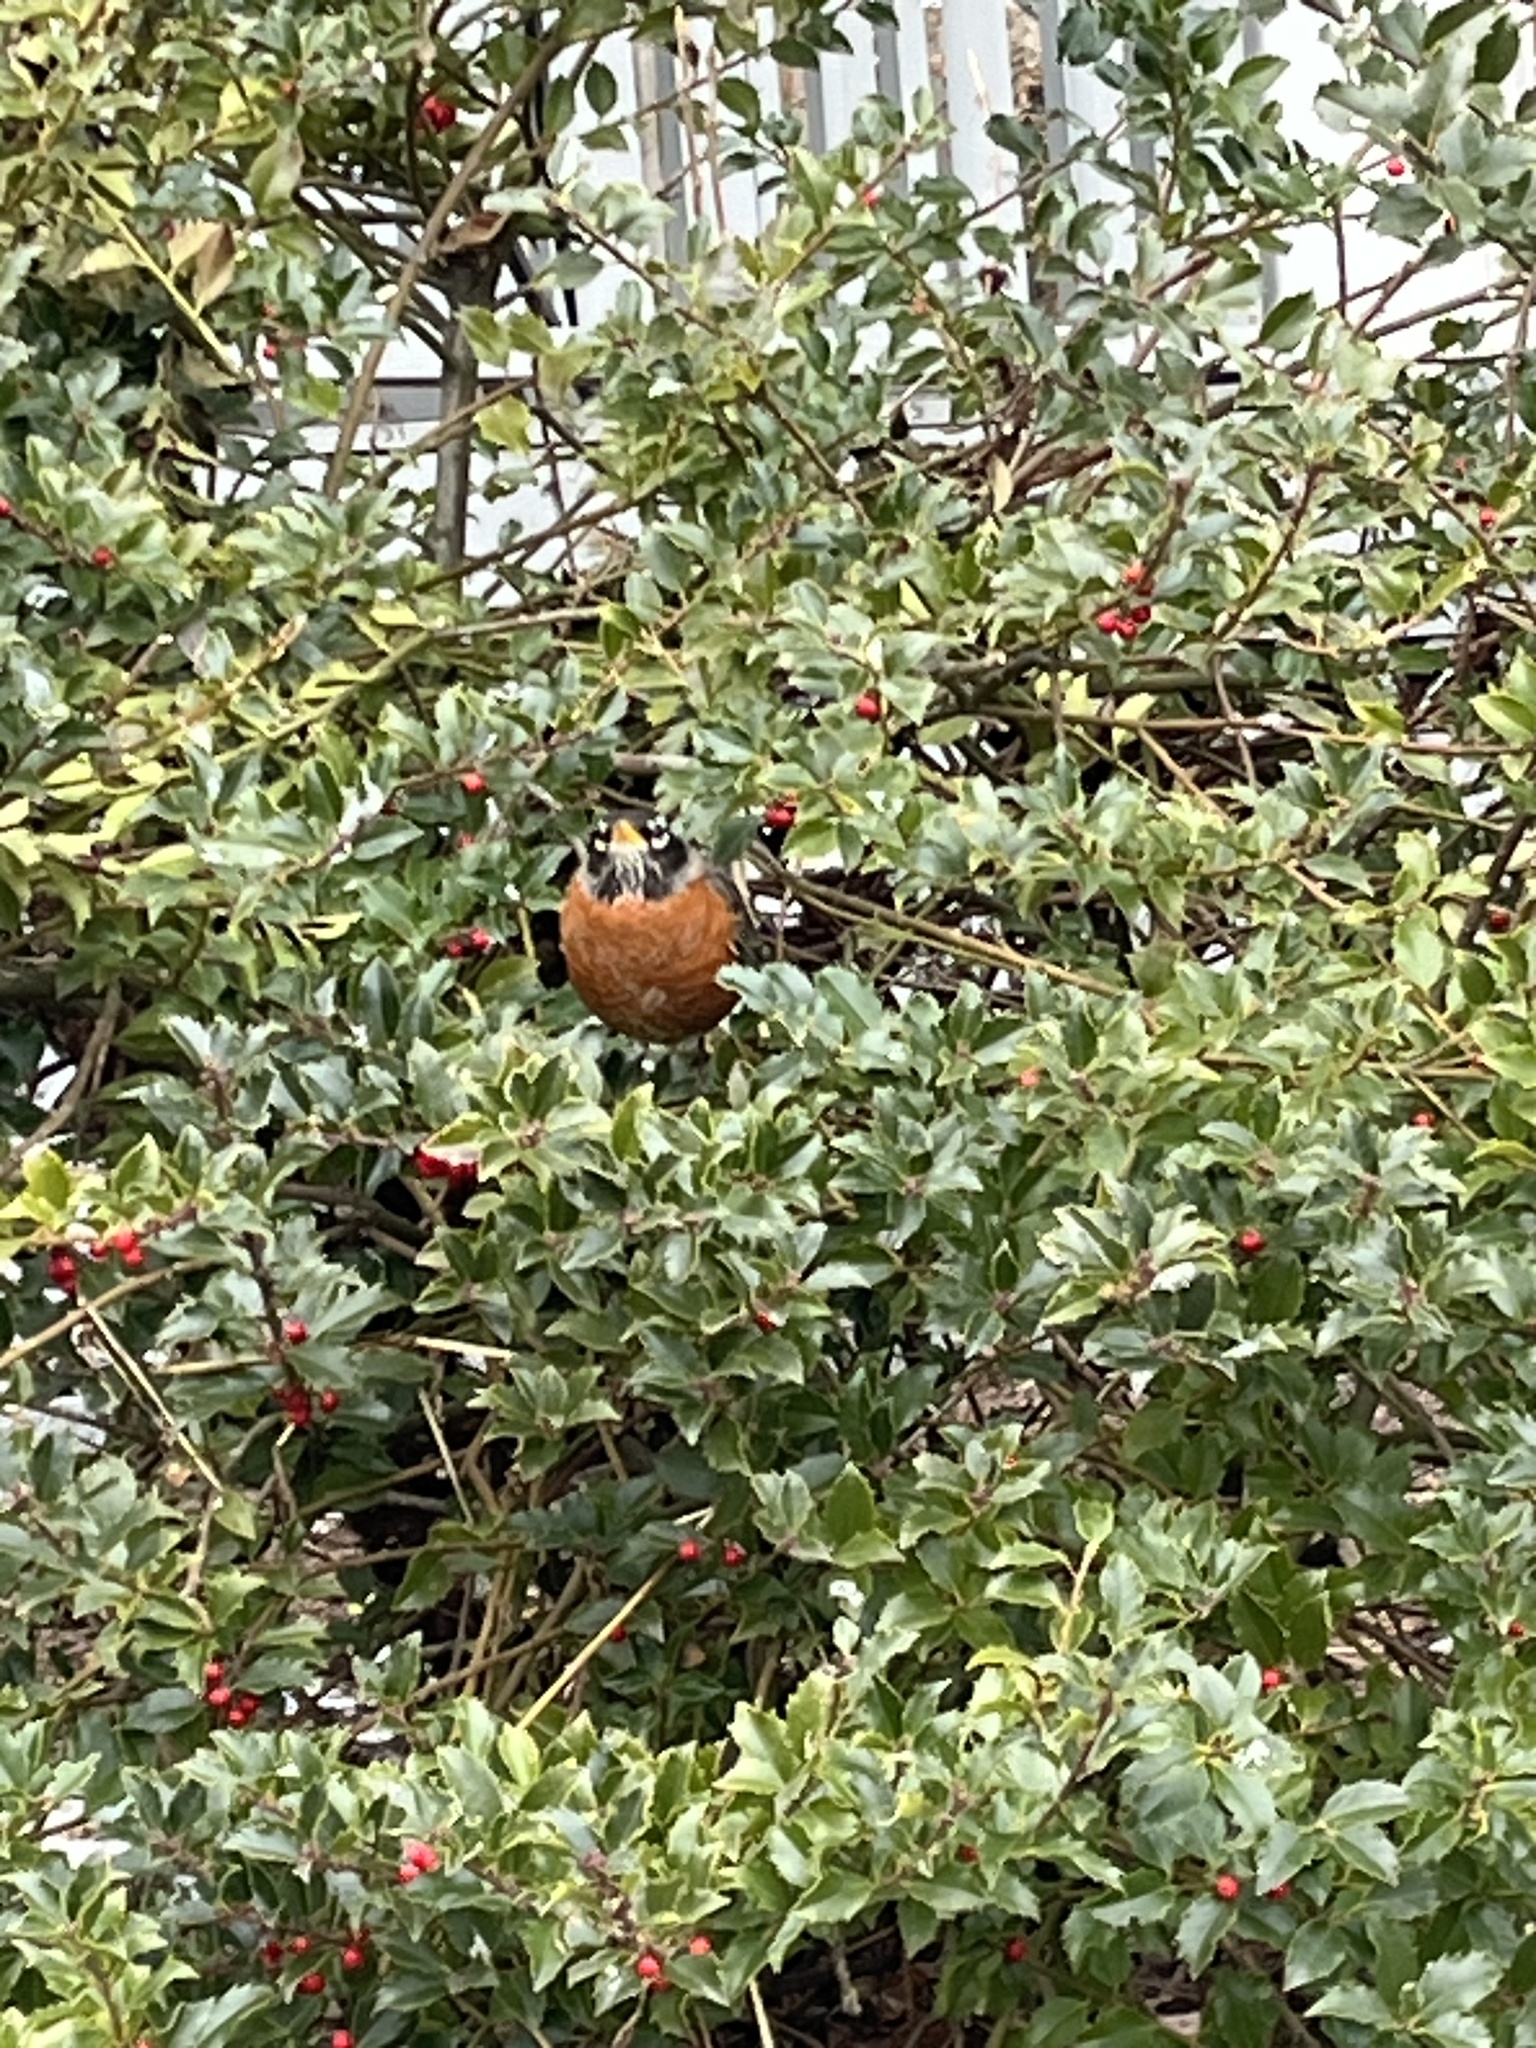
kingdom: Animalia
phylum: Chordata
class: Aves
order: Passeriformes
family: Turdidae
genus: Turdus
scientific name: Turdus migratorius
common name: American robin
